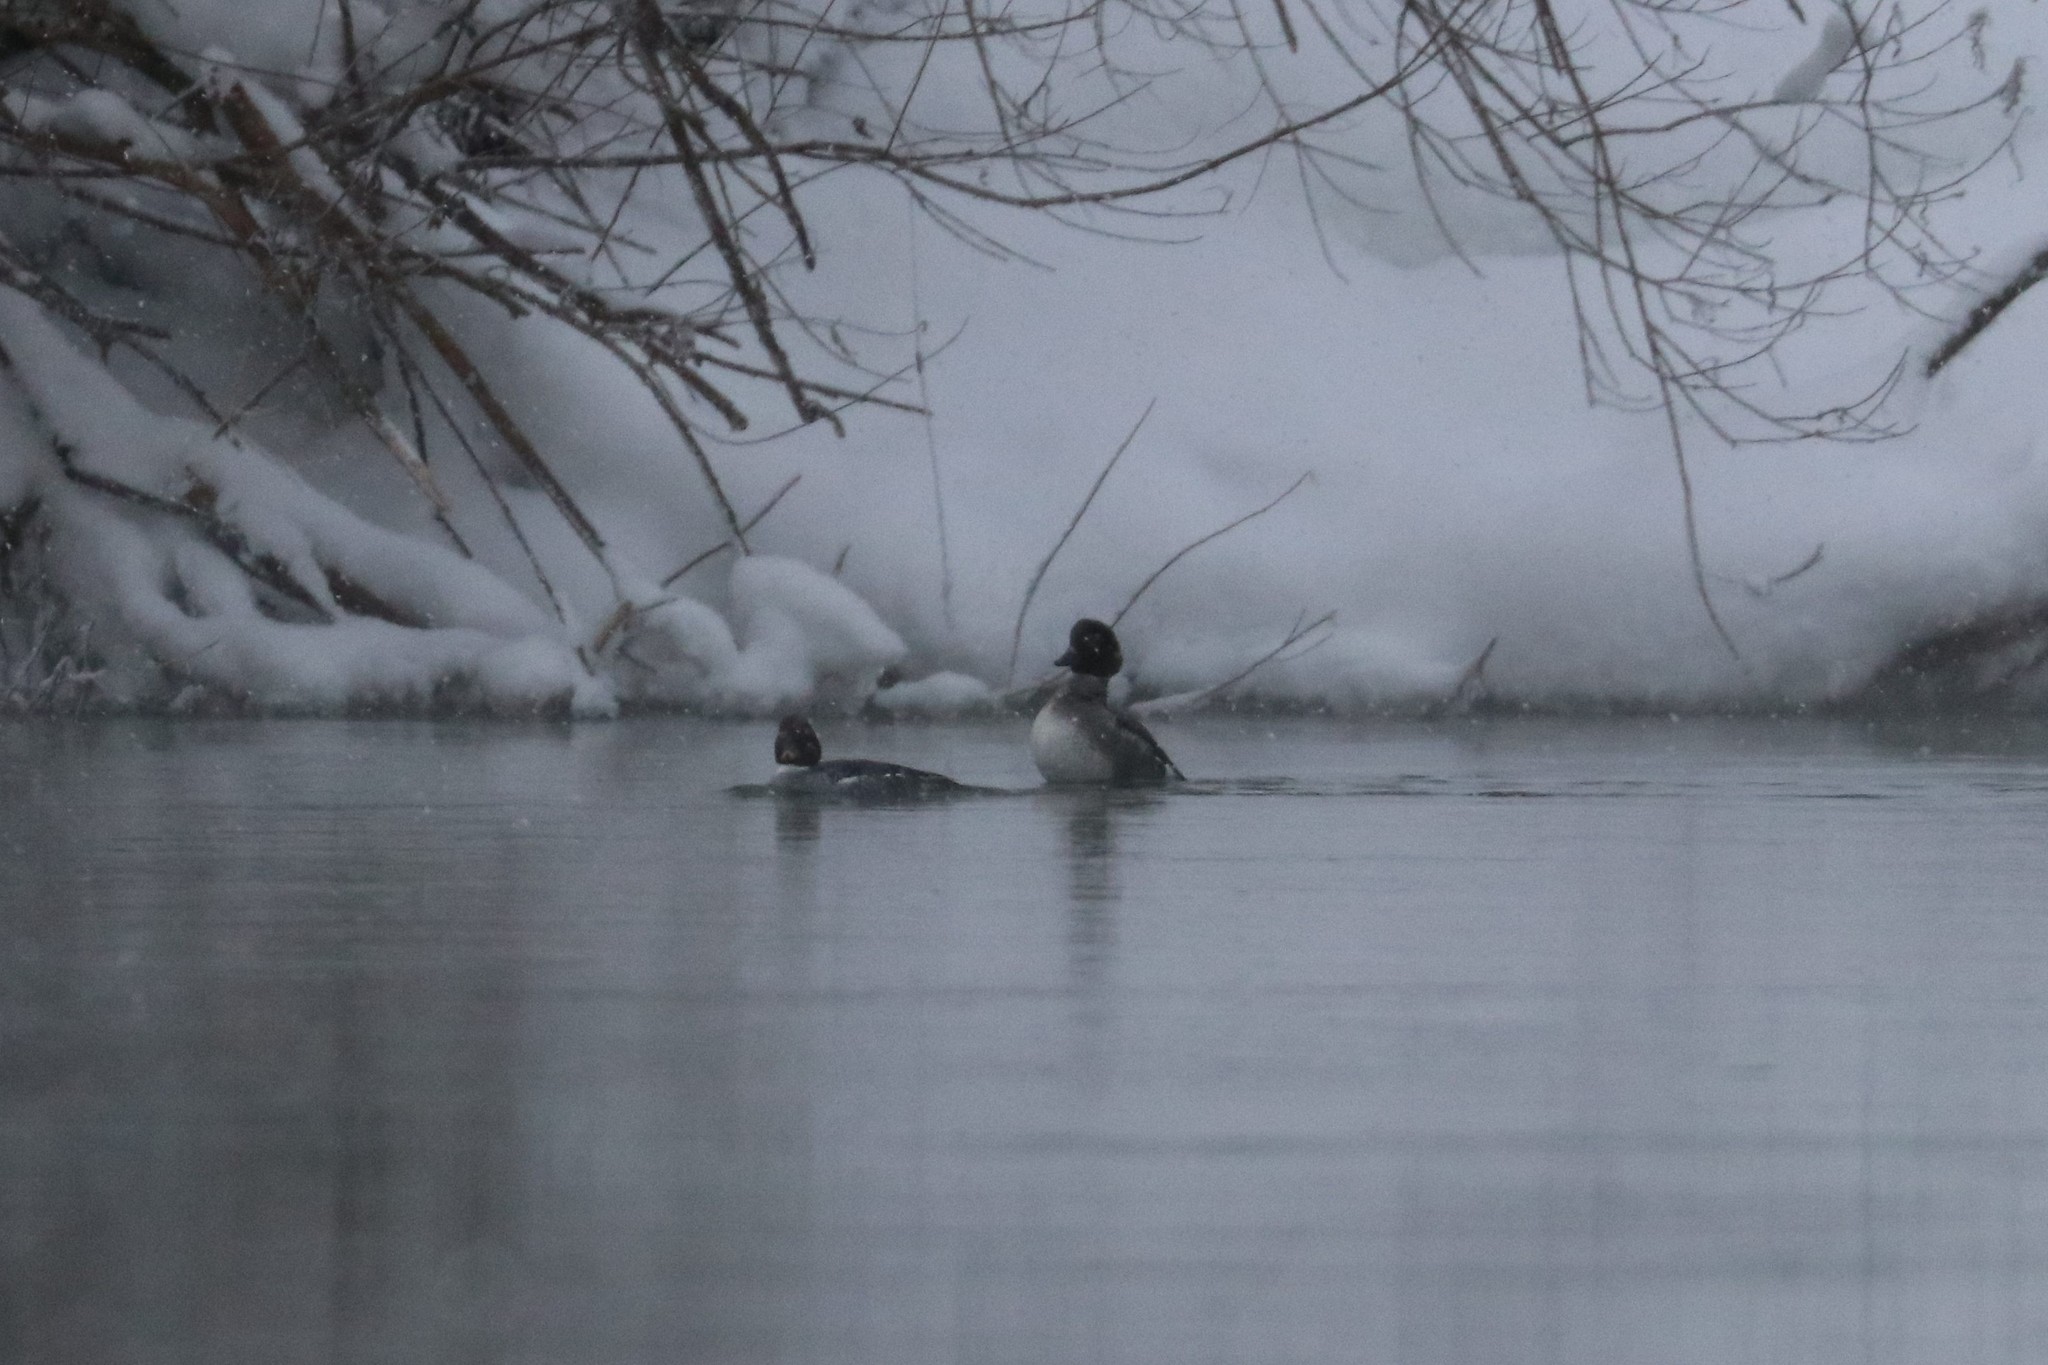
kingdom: Animalia
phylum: Chordata
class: Aves
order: Anseriformes
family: Anatidae
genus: Bucephala
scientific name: Bucephala clangula
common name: Common goldeneye
